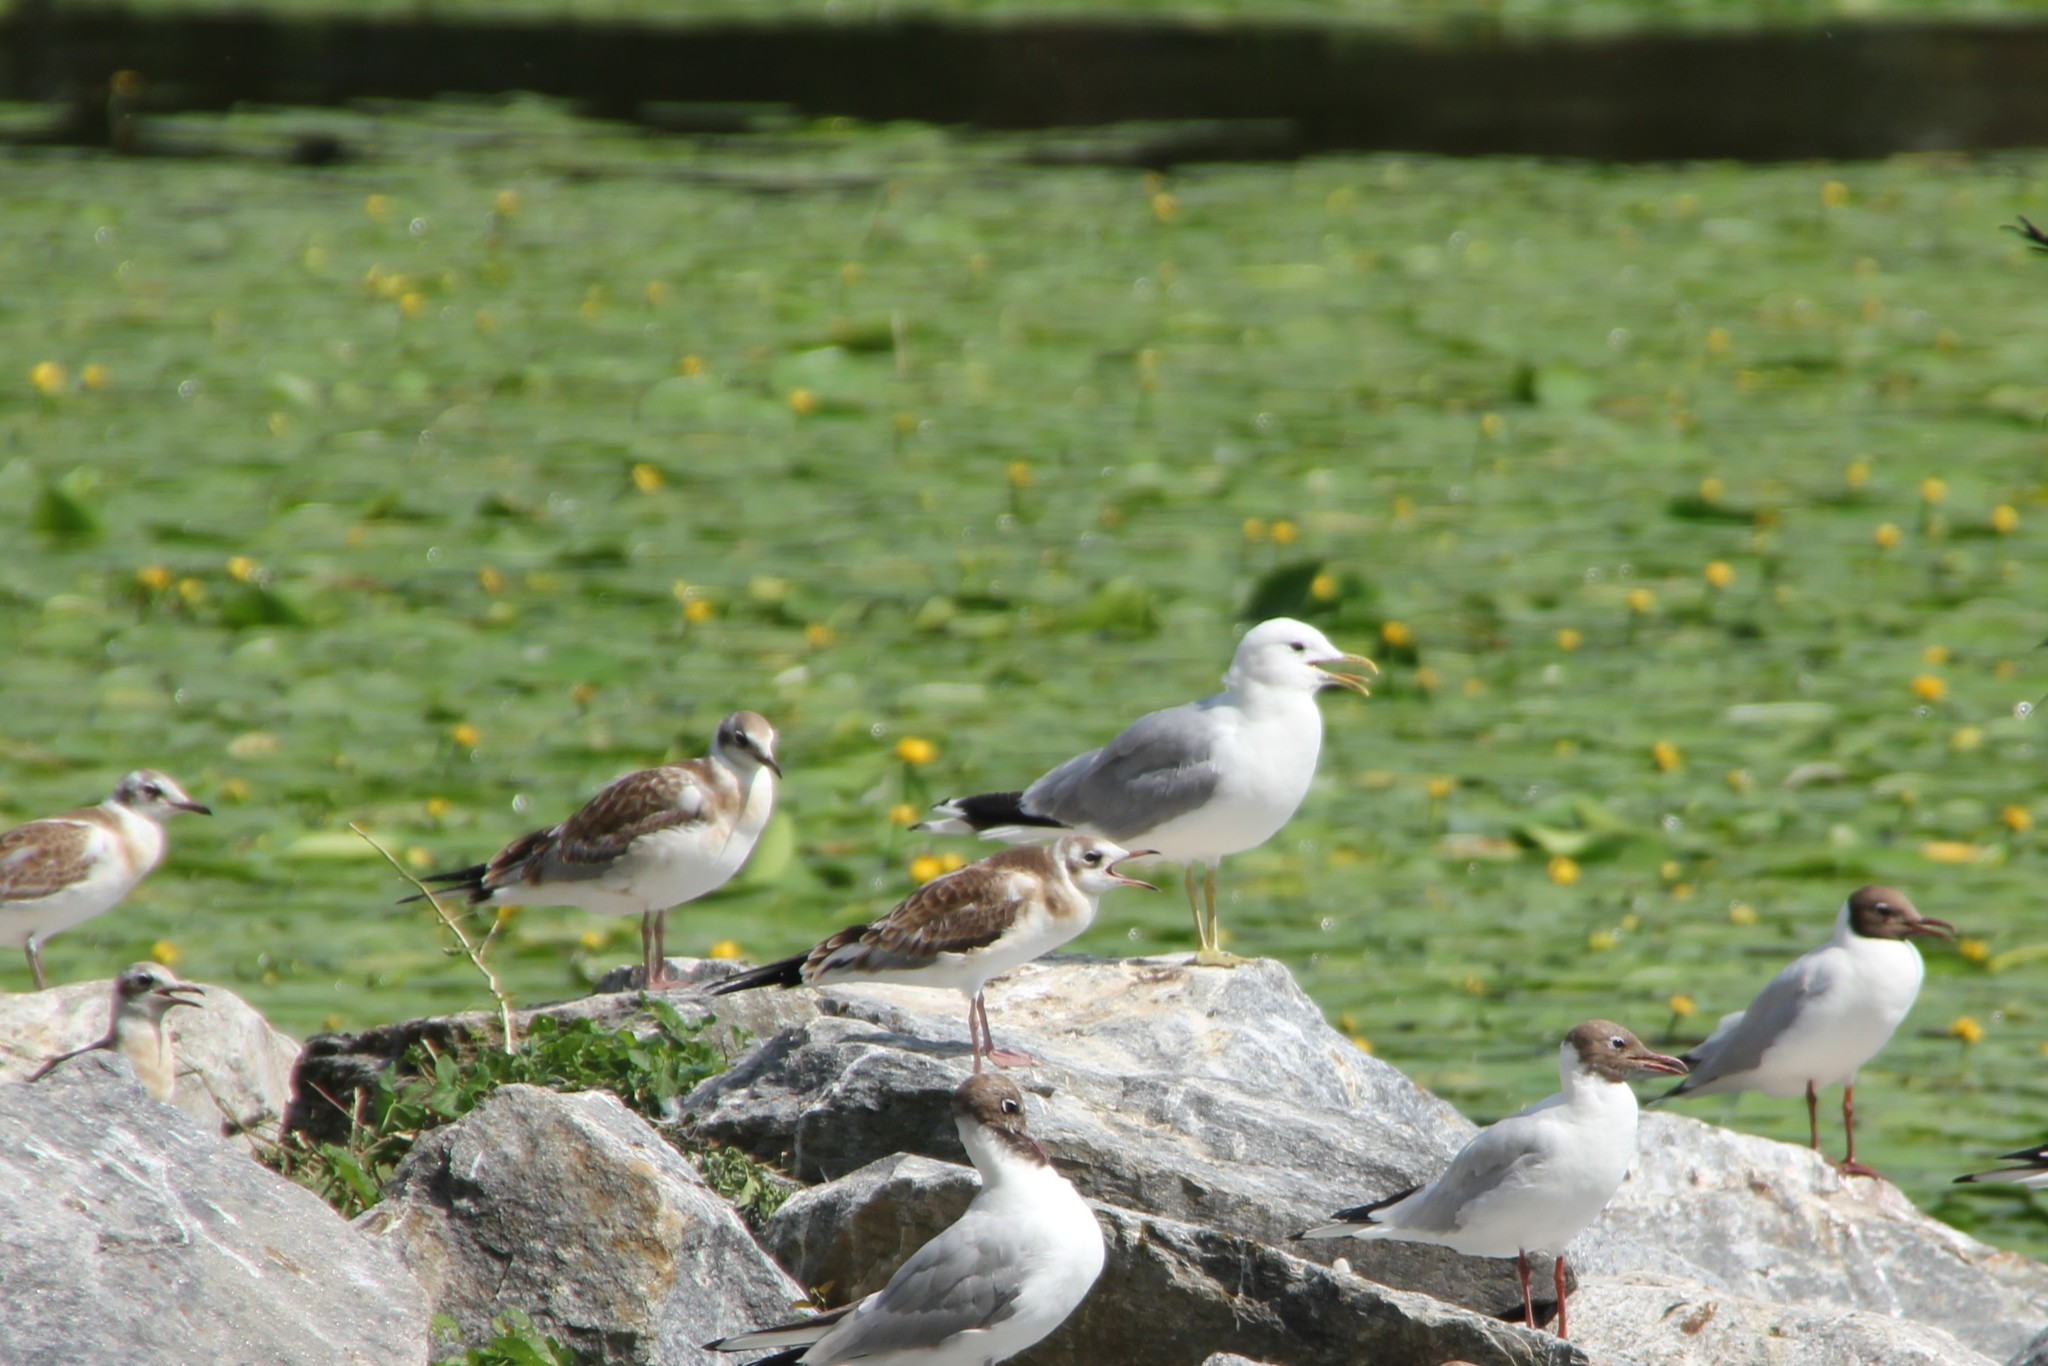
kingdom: Animalia
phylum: Chordata
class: Aves
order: Charadriiformes
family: Laridae
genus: Larus
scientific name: Larus canus
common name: Mew gull
